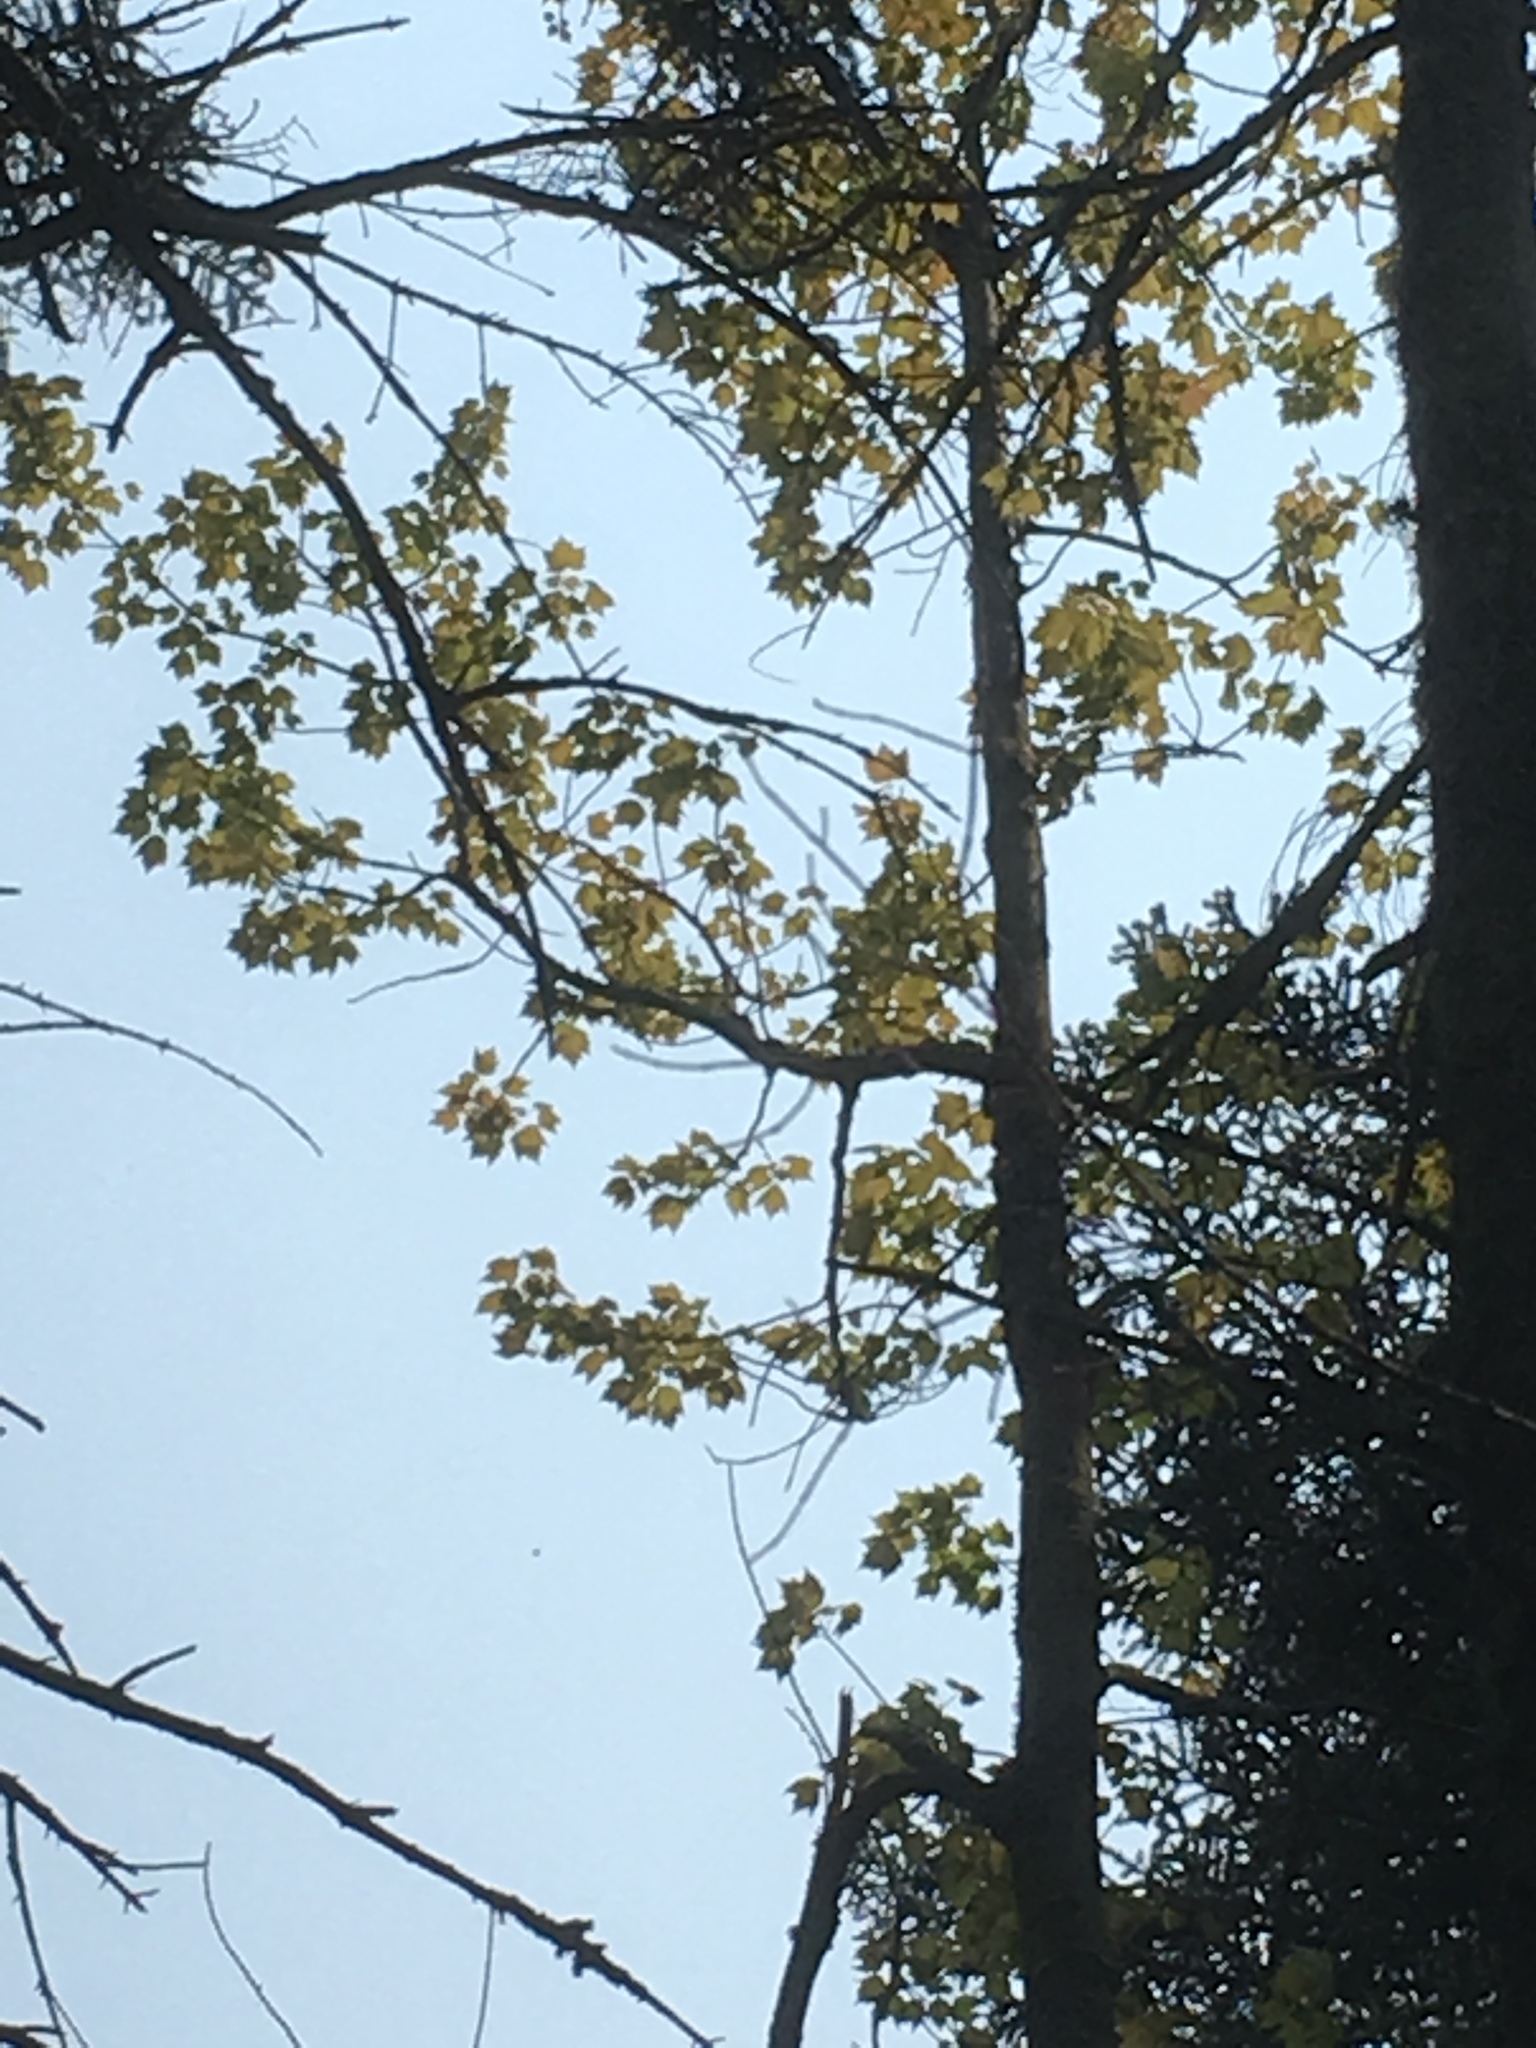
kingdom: Plantae
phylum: Tracheophyta
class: Magnoliopsida
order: Sapindales
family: Sapindaceae
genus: Acer
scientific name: Acer rubrum
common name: Red maple
